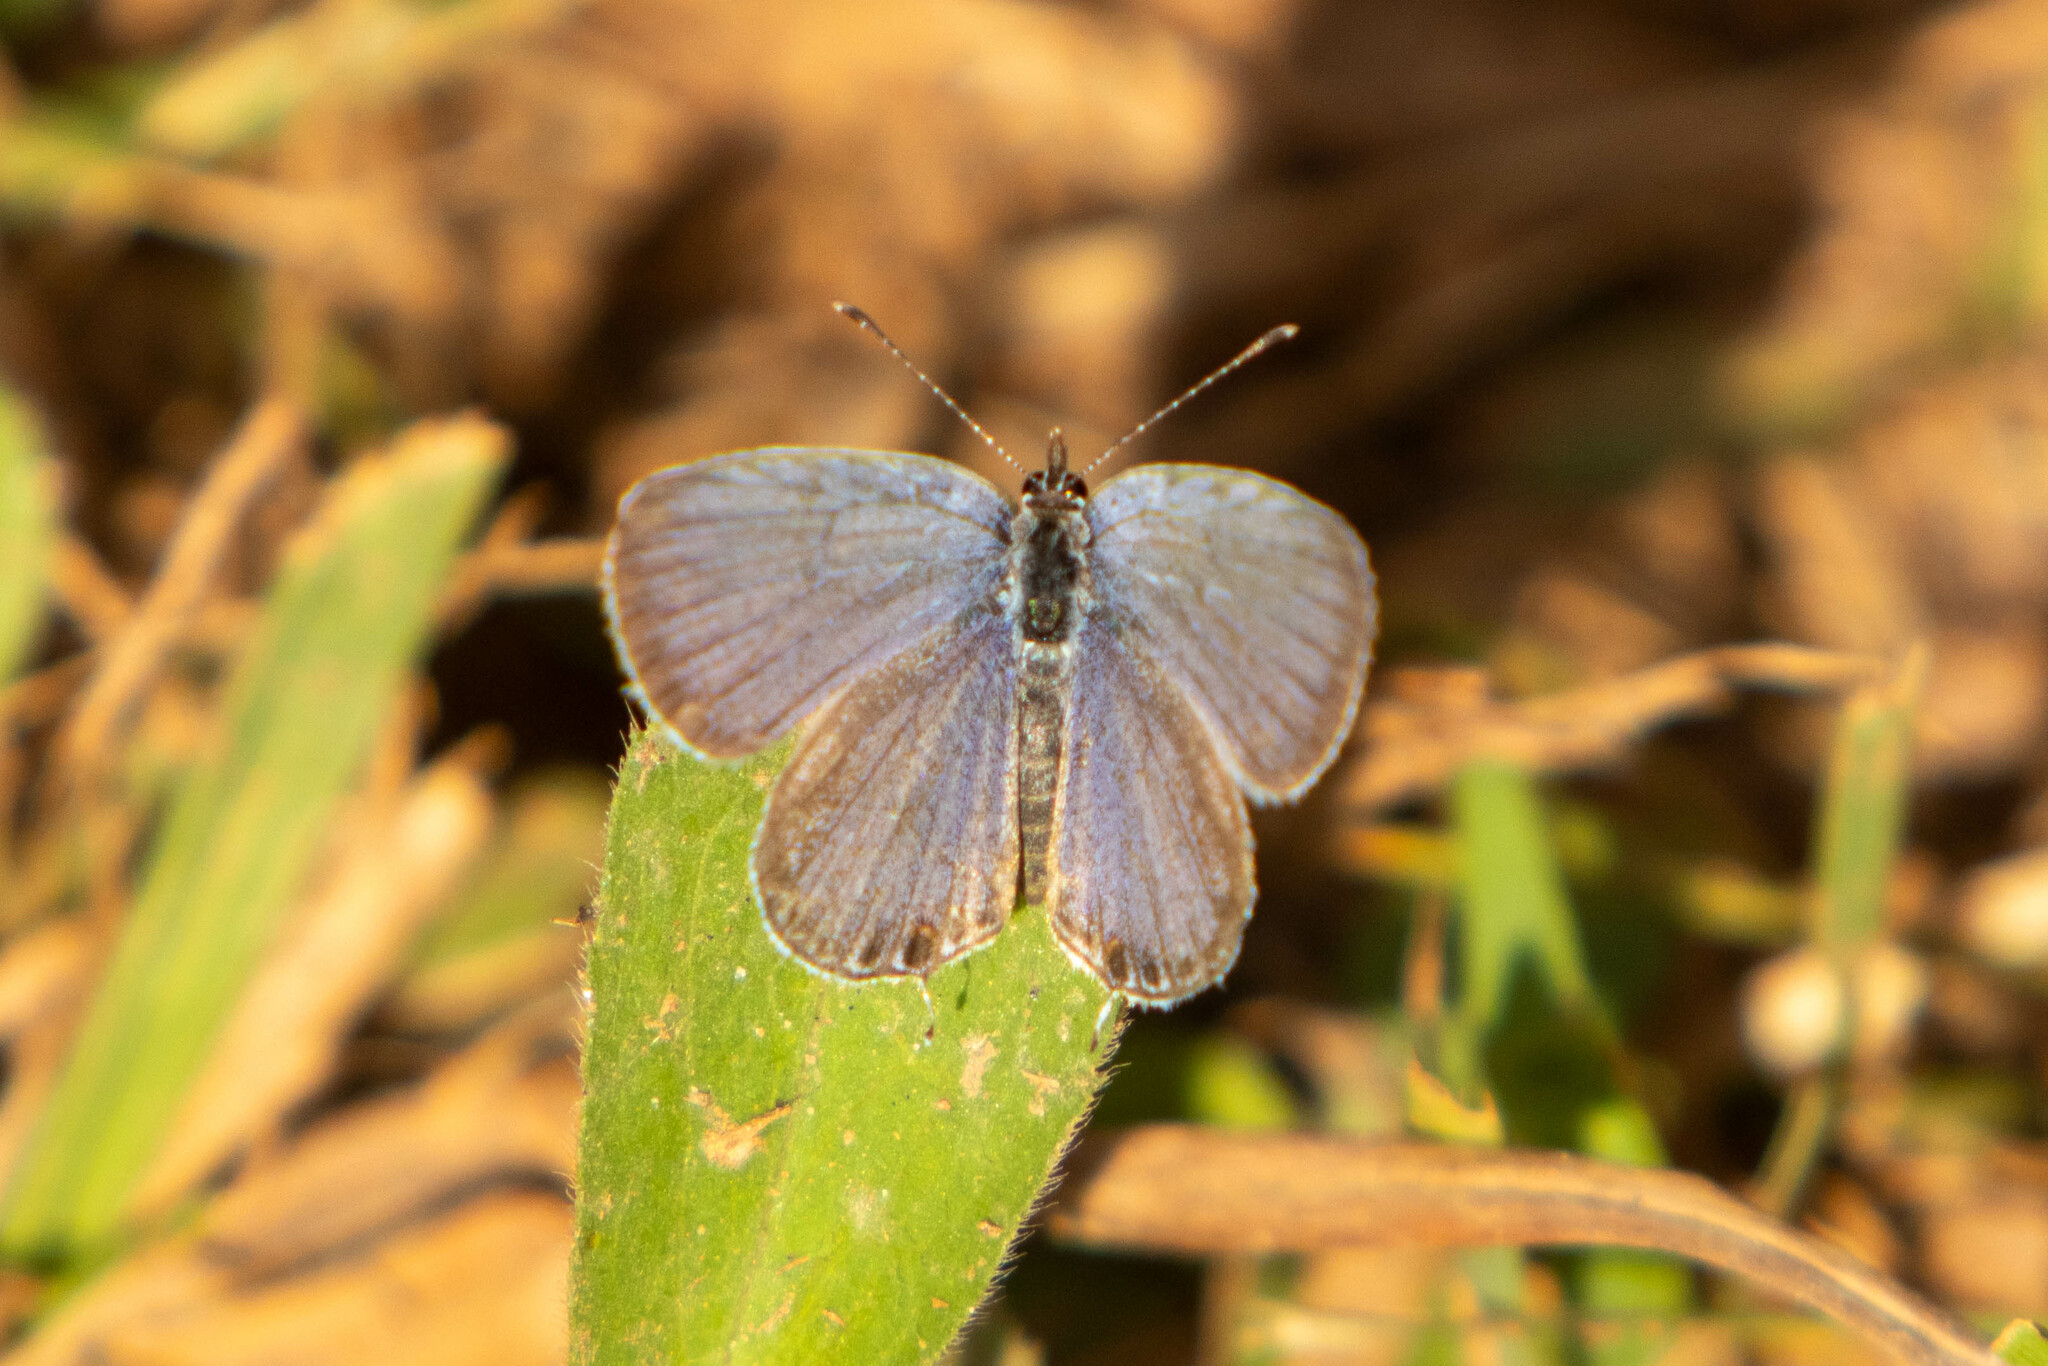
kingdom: Animalia
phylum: Arthropoda
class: Insecta
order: Lepidoptera
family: Lycaenidae
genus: Elkalyce
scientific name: Elkalyce comyntas
